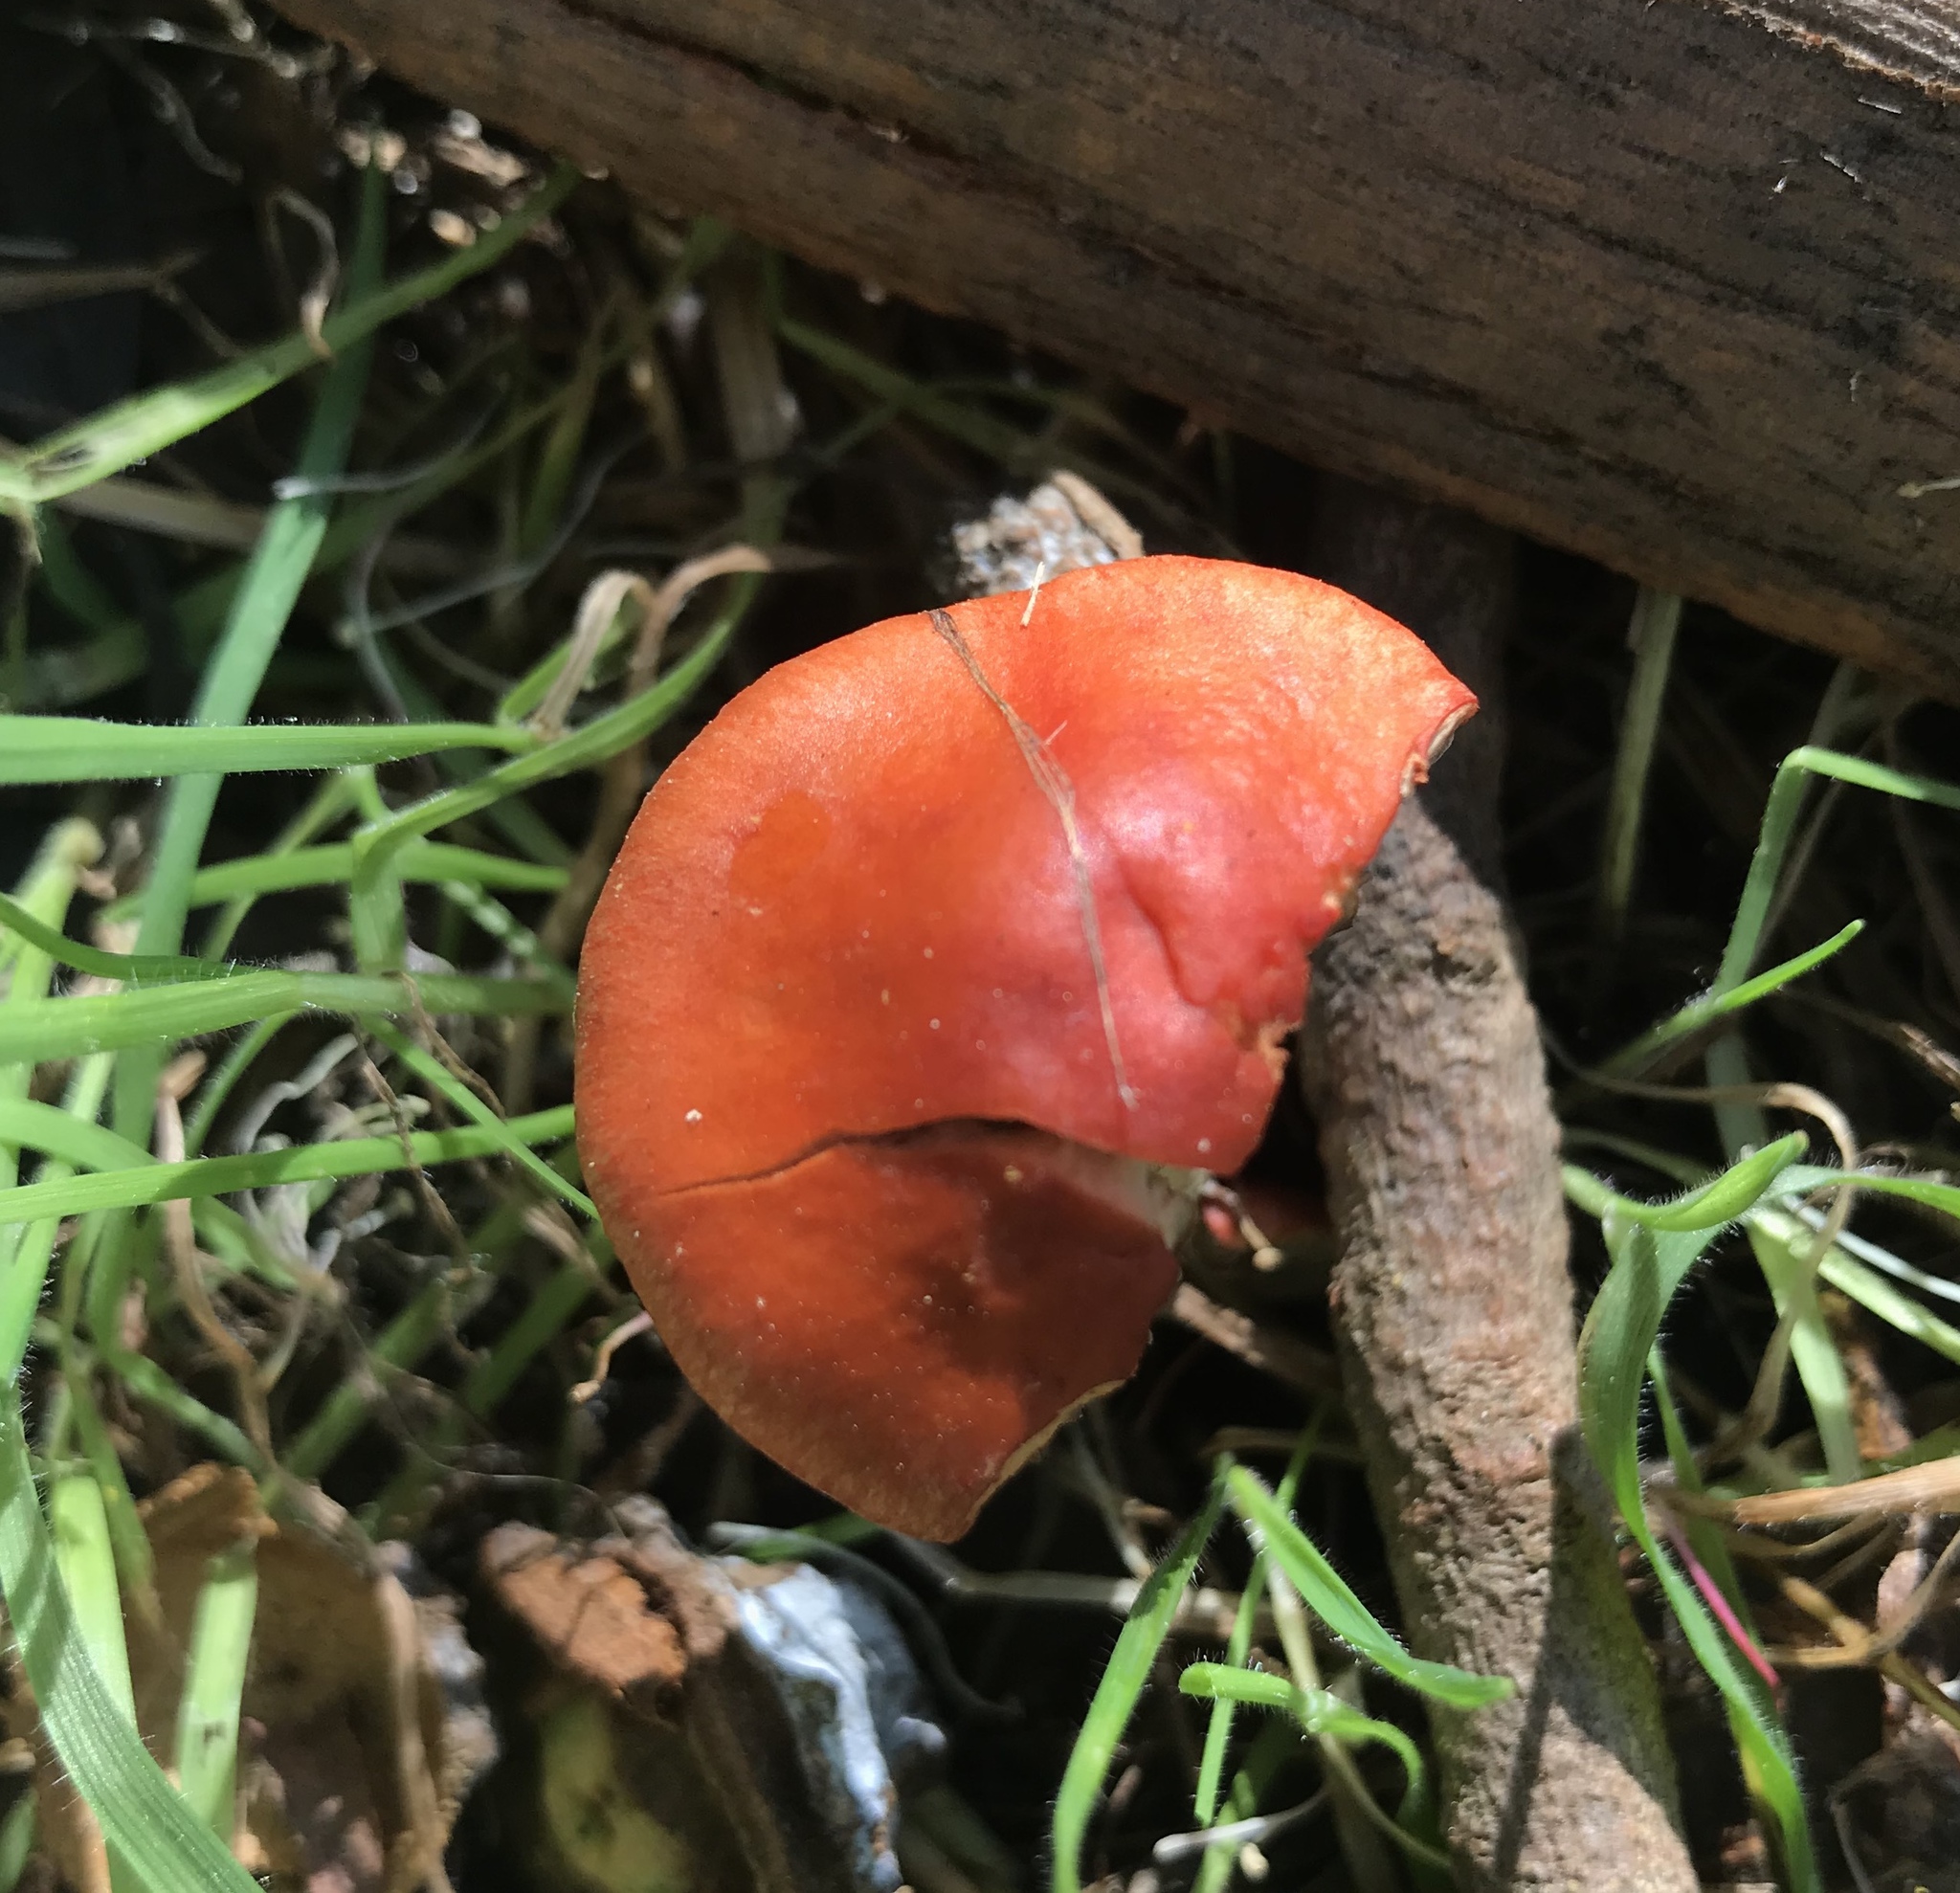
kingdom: Fungi
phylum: Basidiomycota
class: Agaricomycetes
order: Agaricales
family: Strophariaceae
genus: Leratiomyces
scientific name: Leratiomyces ceres
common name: Redlead roundhead
